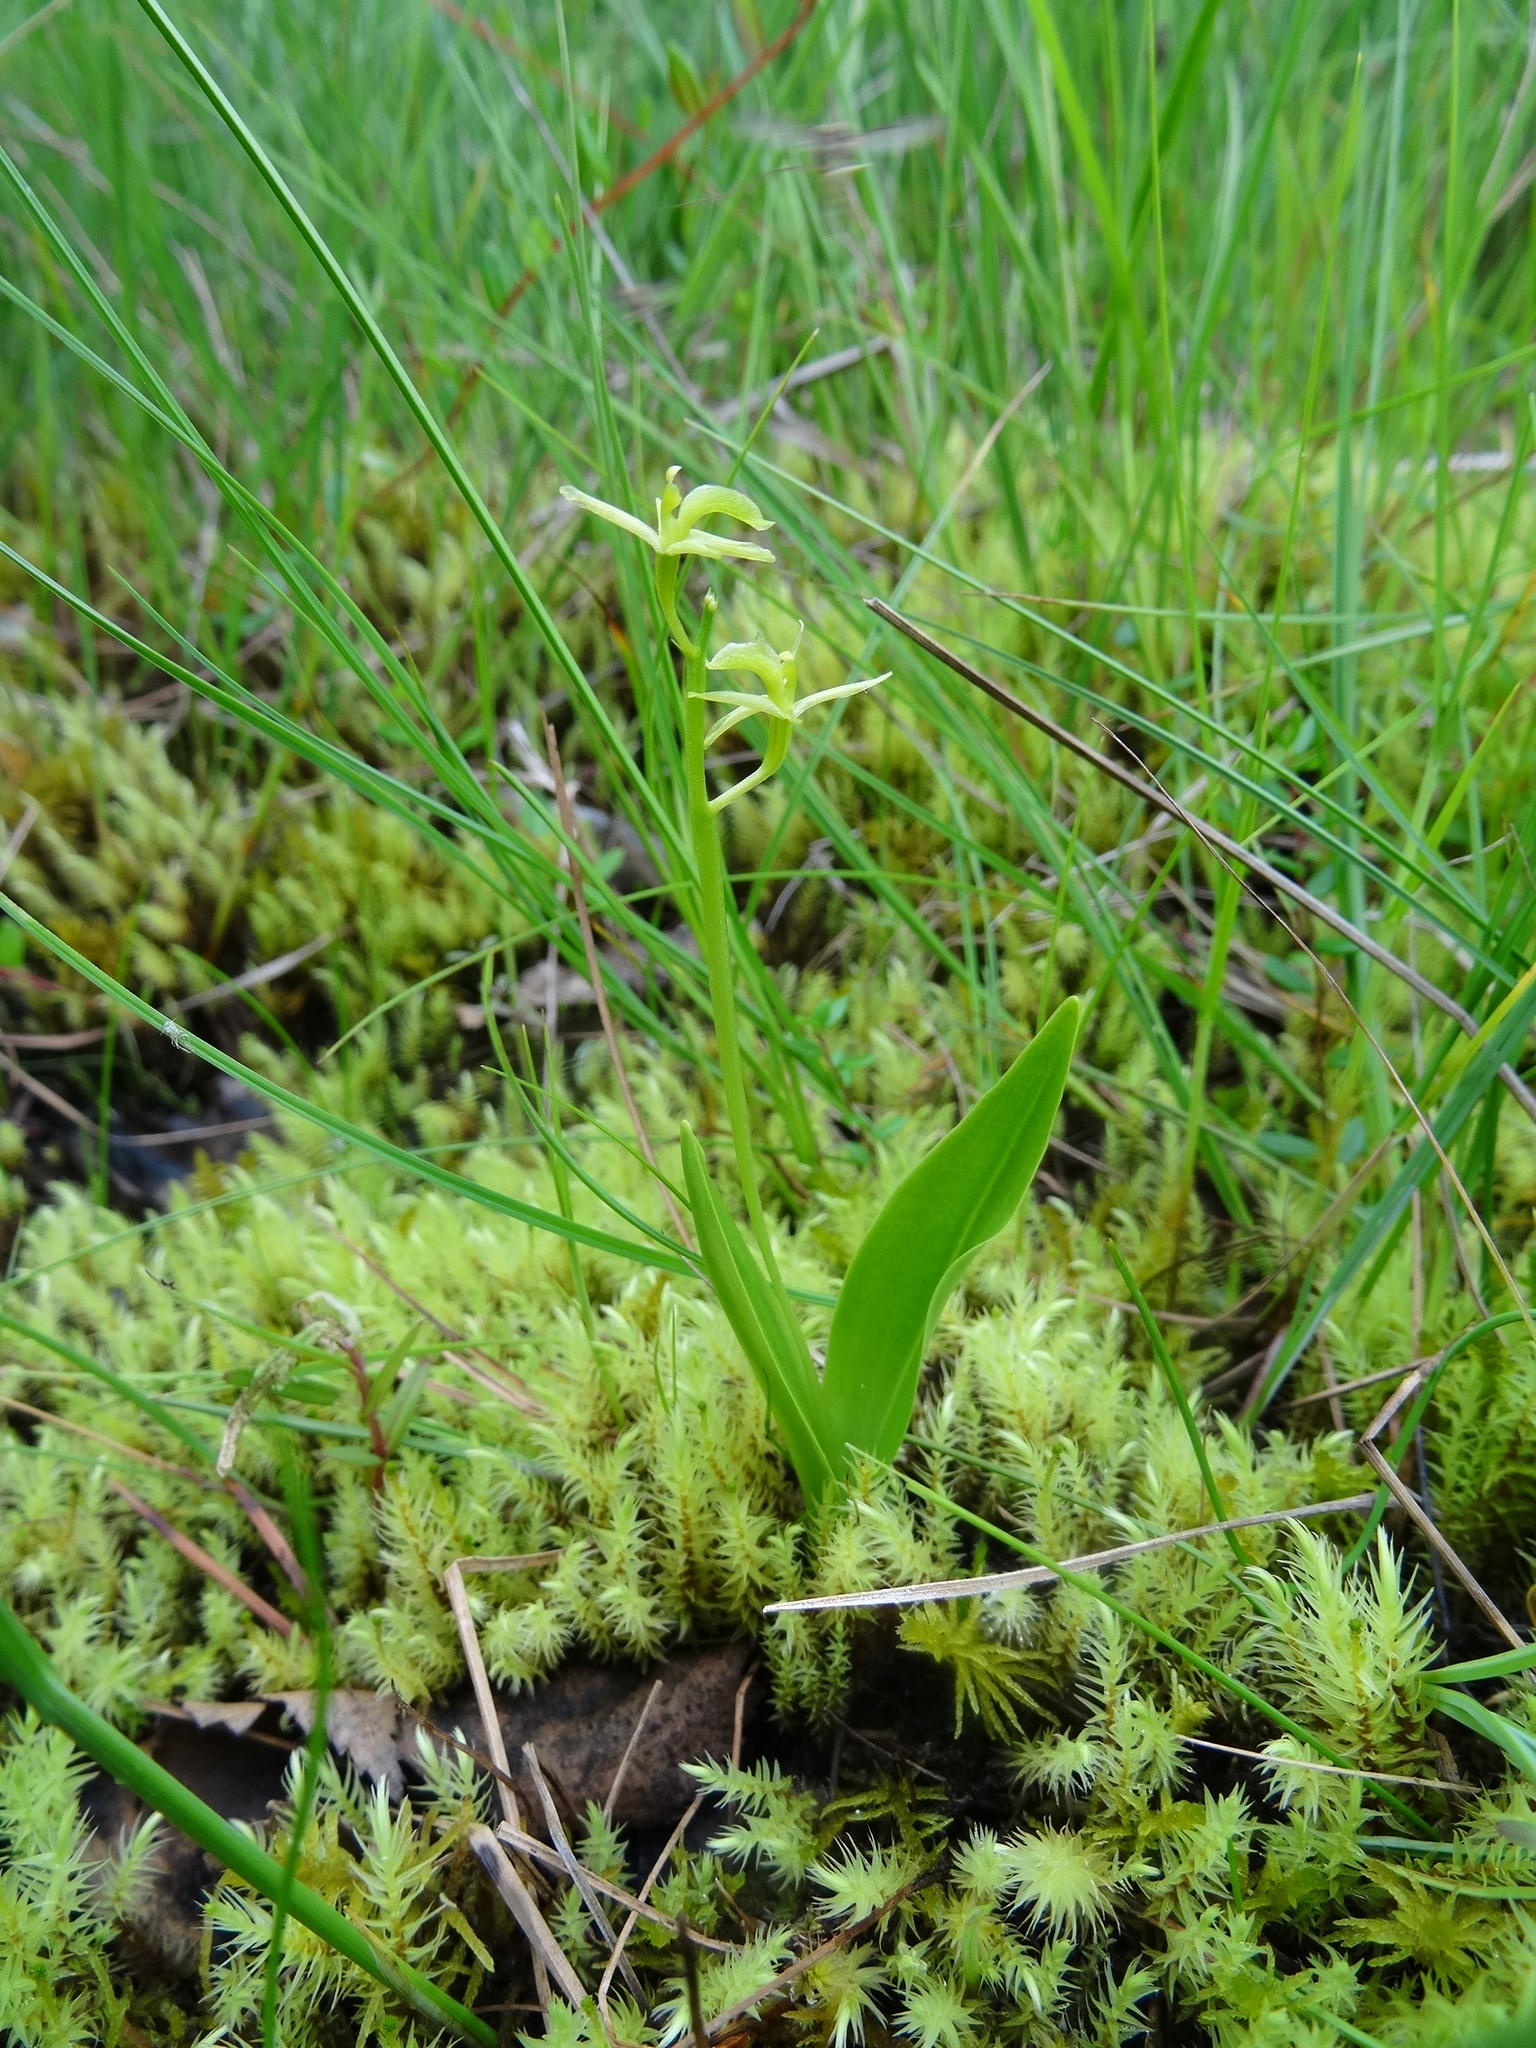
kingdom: Animalia
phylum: Arthropoda
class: Insecta
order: Coleoptera
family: Curculionidae
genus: Liparis
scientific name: Liparis loeselii
